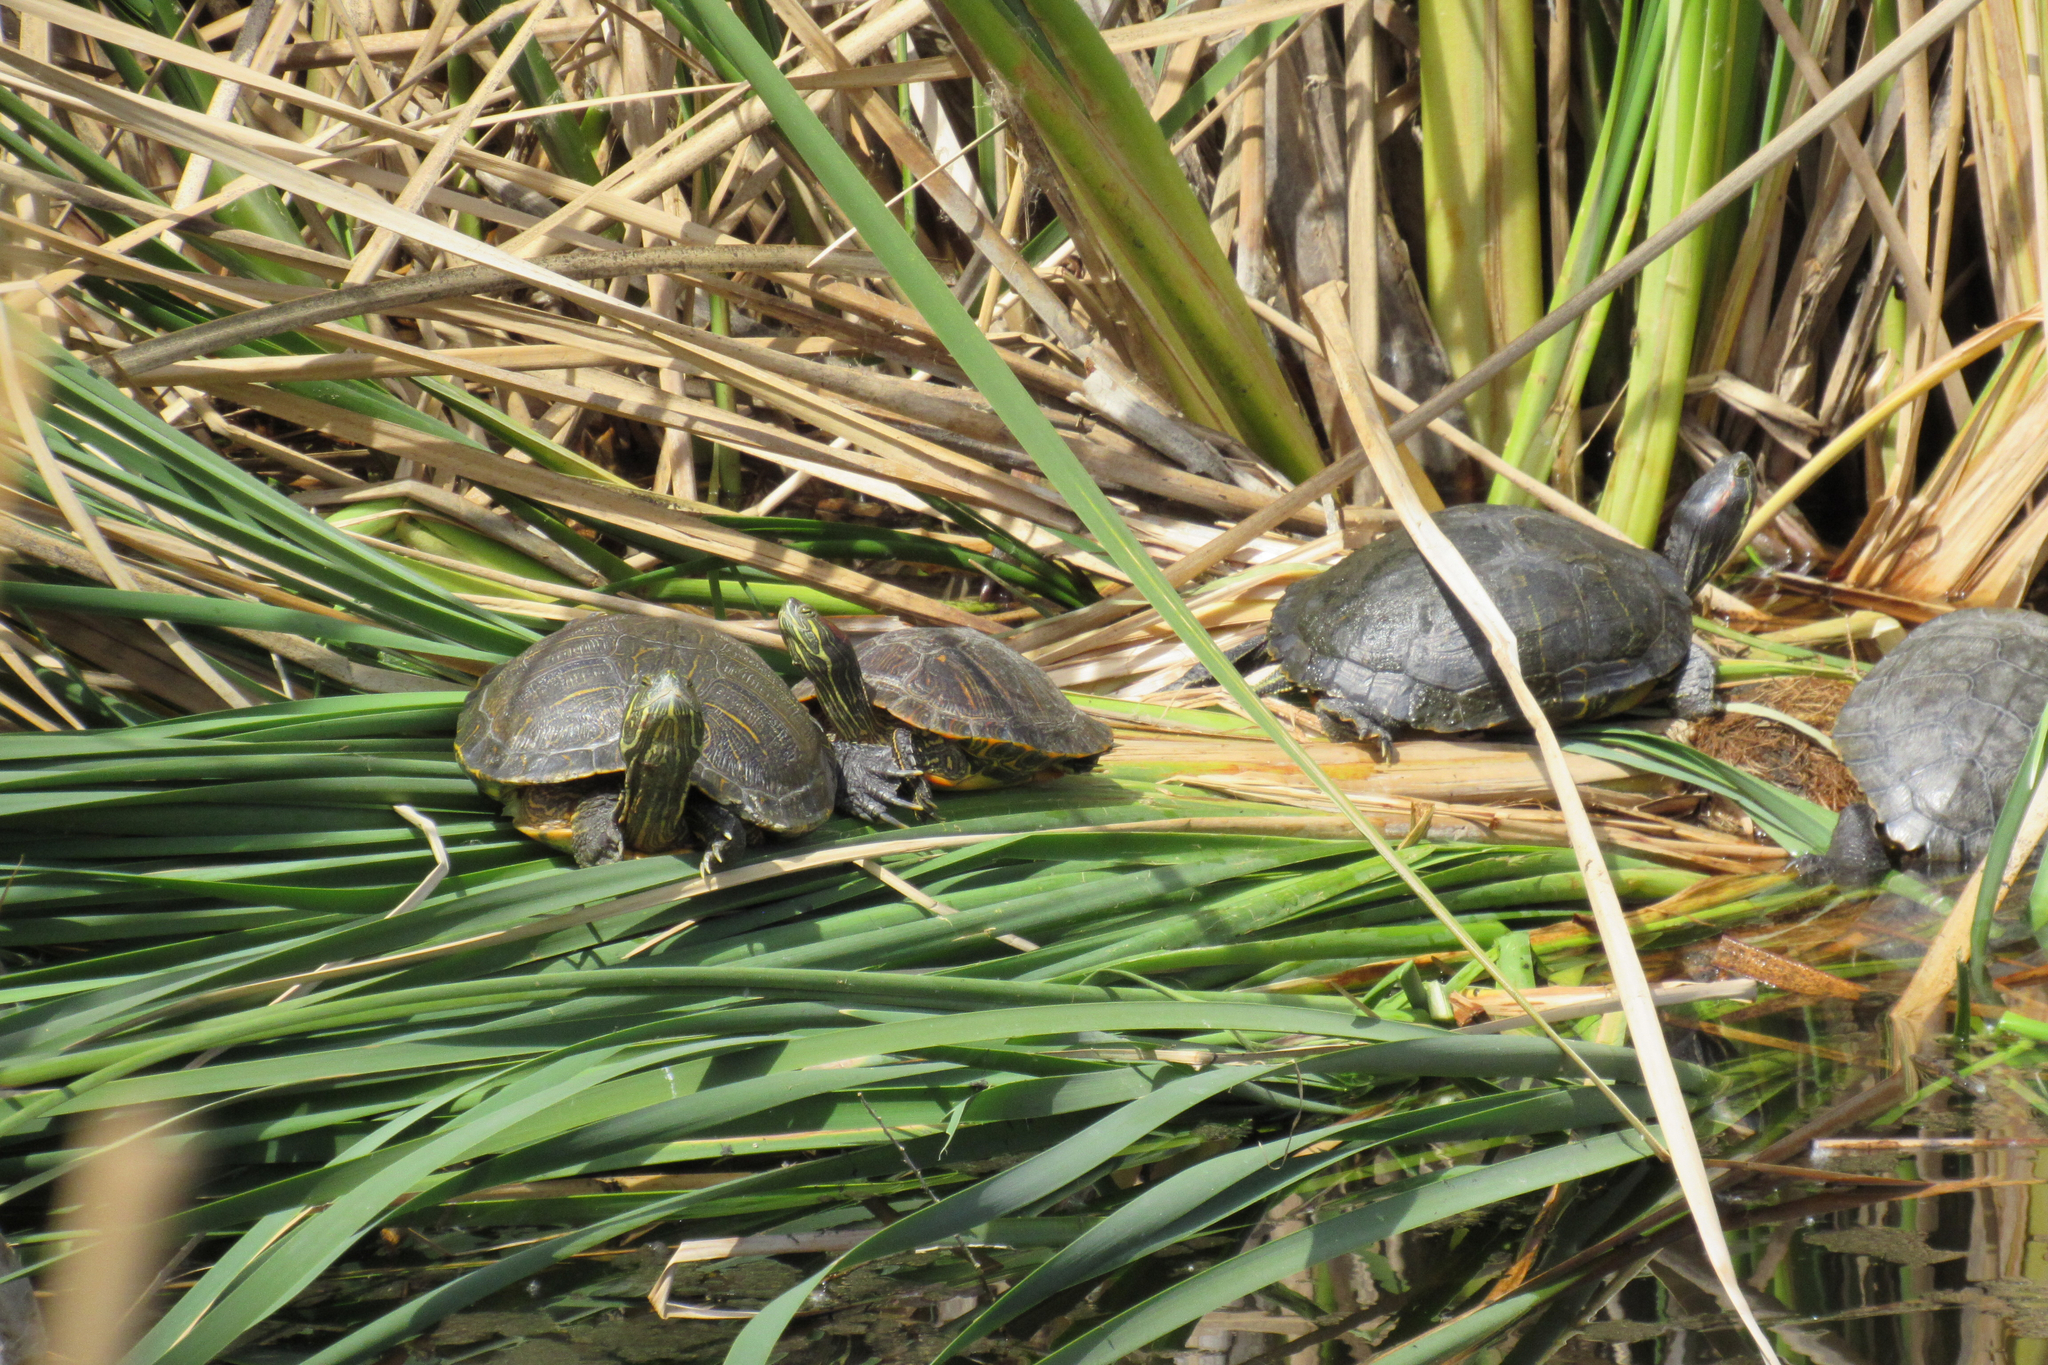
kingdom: Animalia
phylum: Chordata
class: Testudines
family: Emydidae
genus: Trachemys
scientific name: Trachemys scripta
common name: Slider
